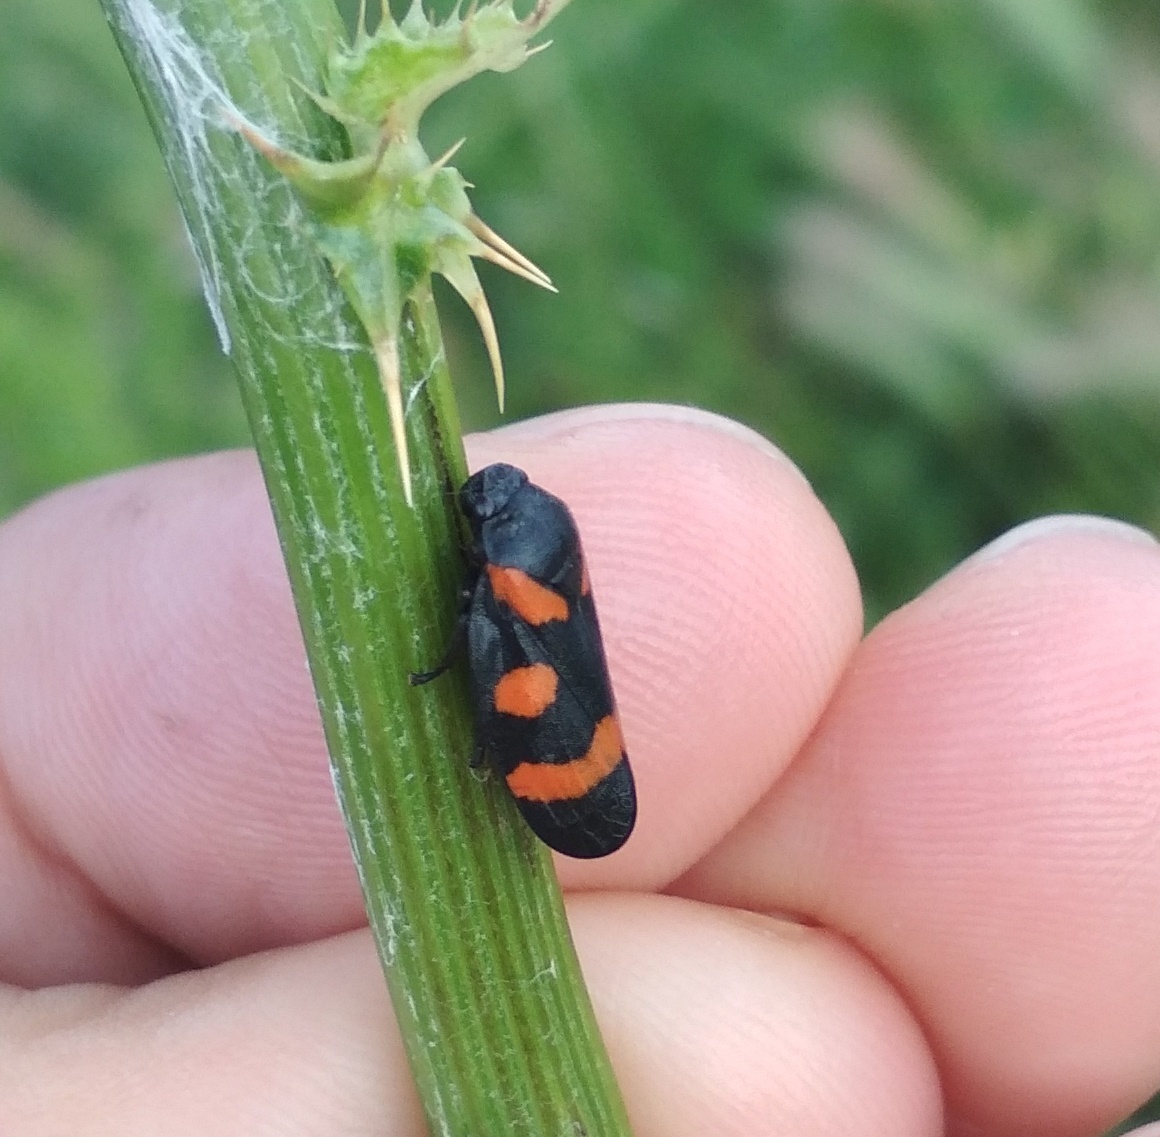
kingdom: Animalia
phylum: Arthropoda
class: Insecta
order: Hemiptera
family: Cercopidae
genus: Cercopis
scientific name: Cercopis sanguinolenta
